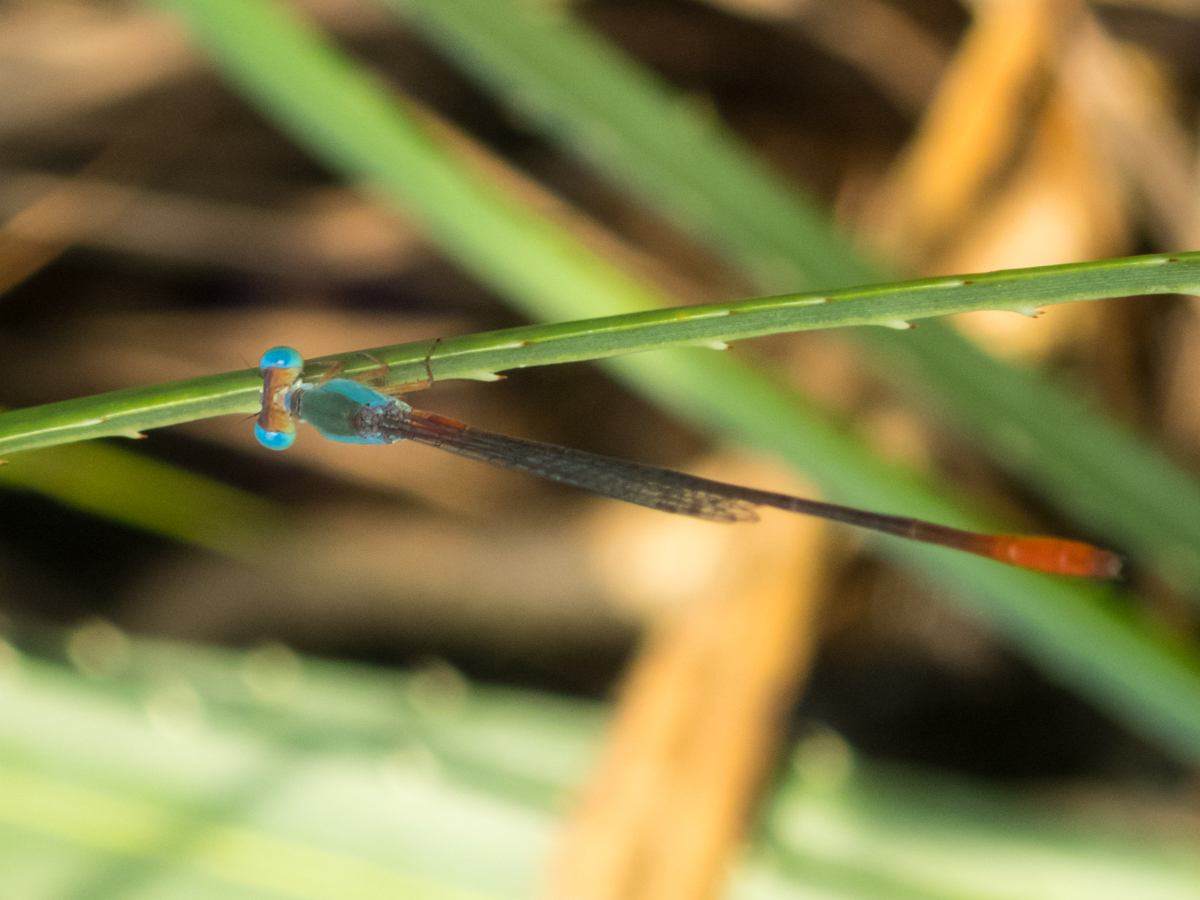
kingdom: Animalia
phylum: Arthropoda
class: Insecta
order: Odonata
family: Coenagrionidae
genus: Ceriagrion
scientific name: Ceriagrion cerinorubellum
